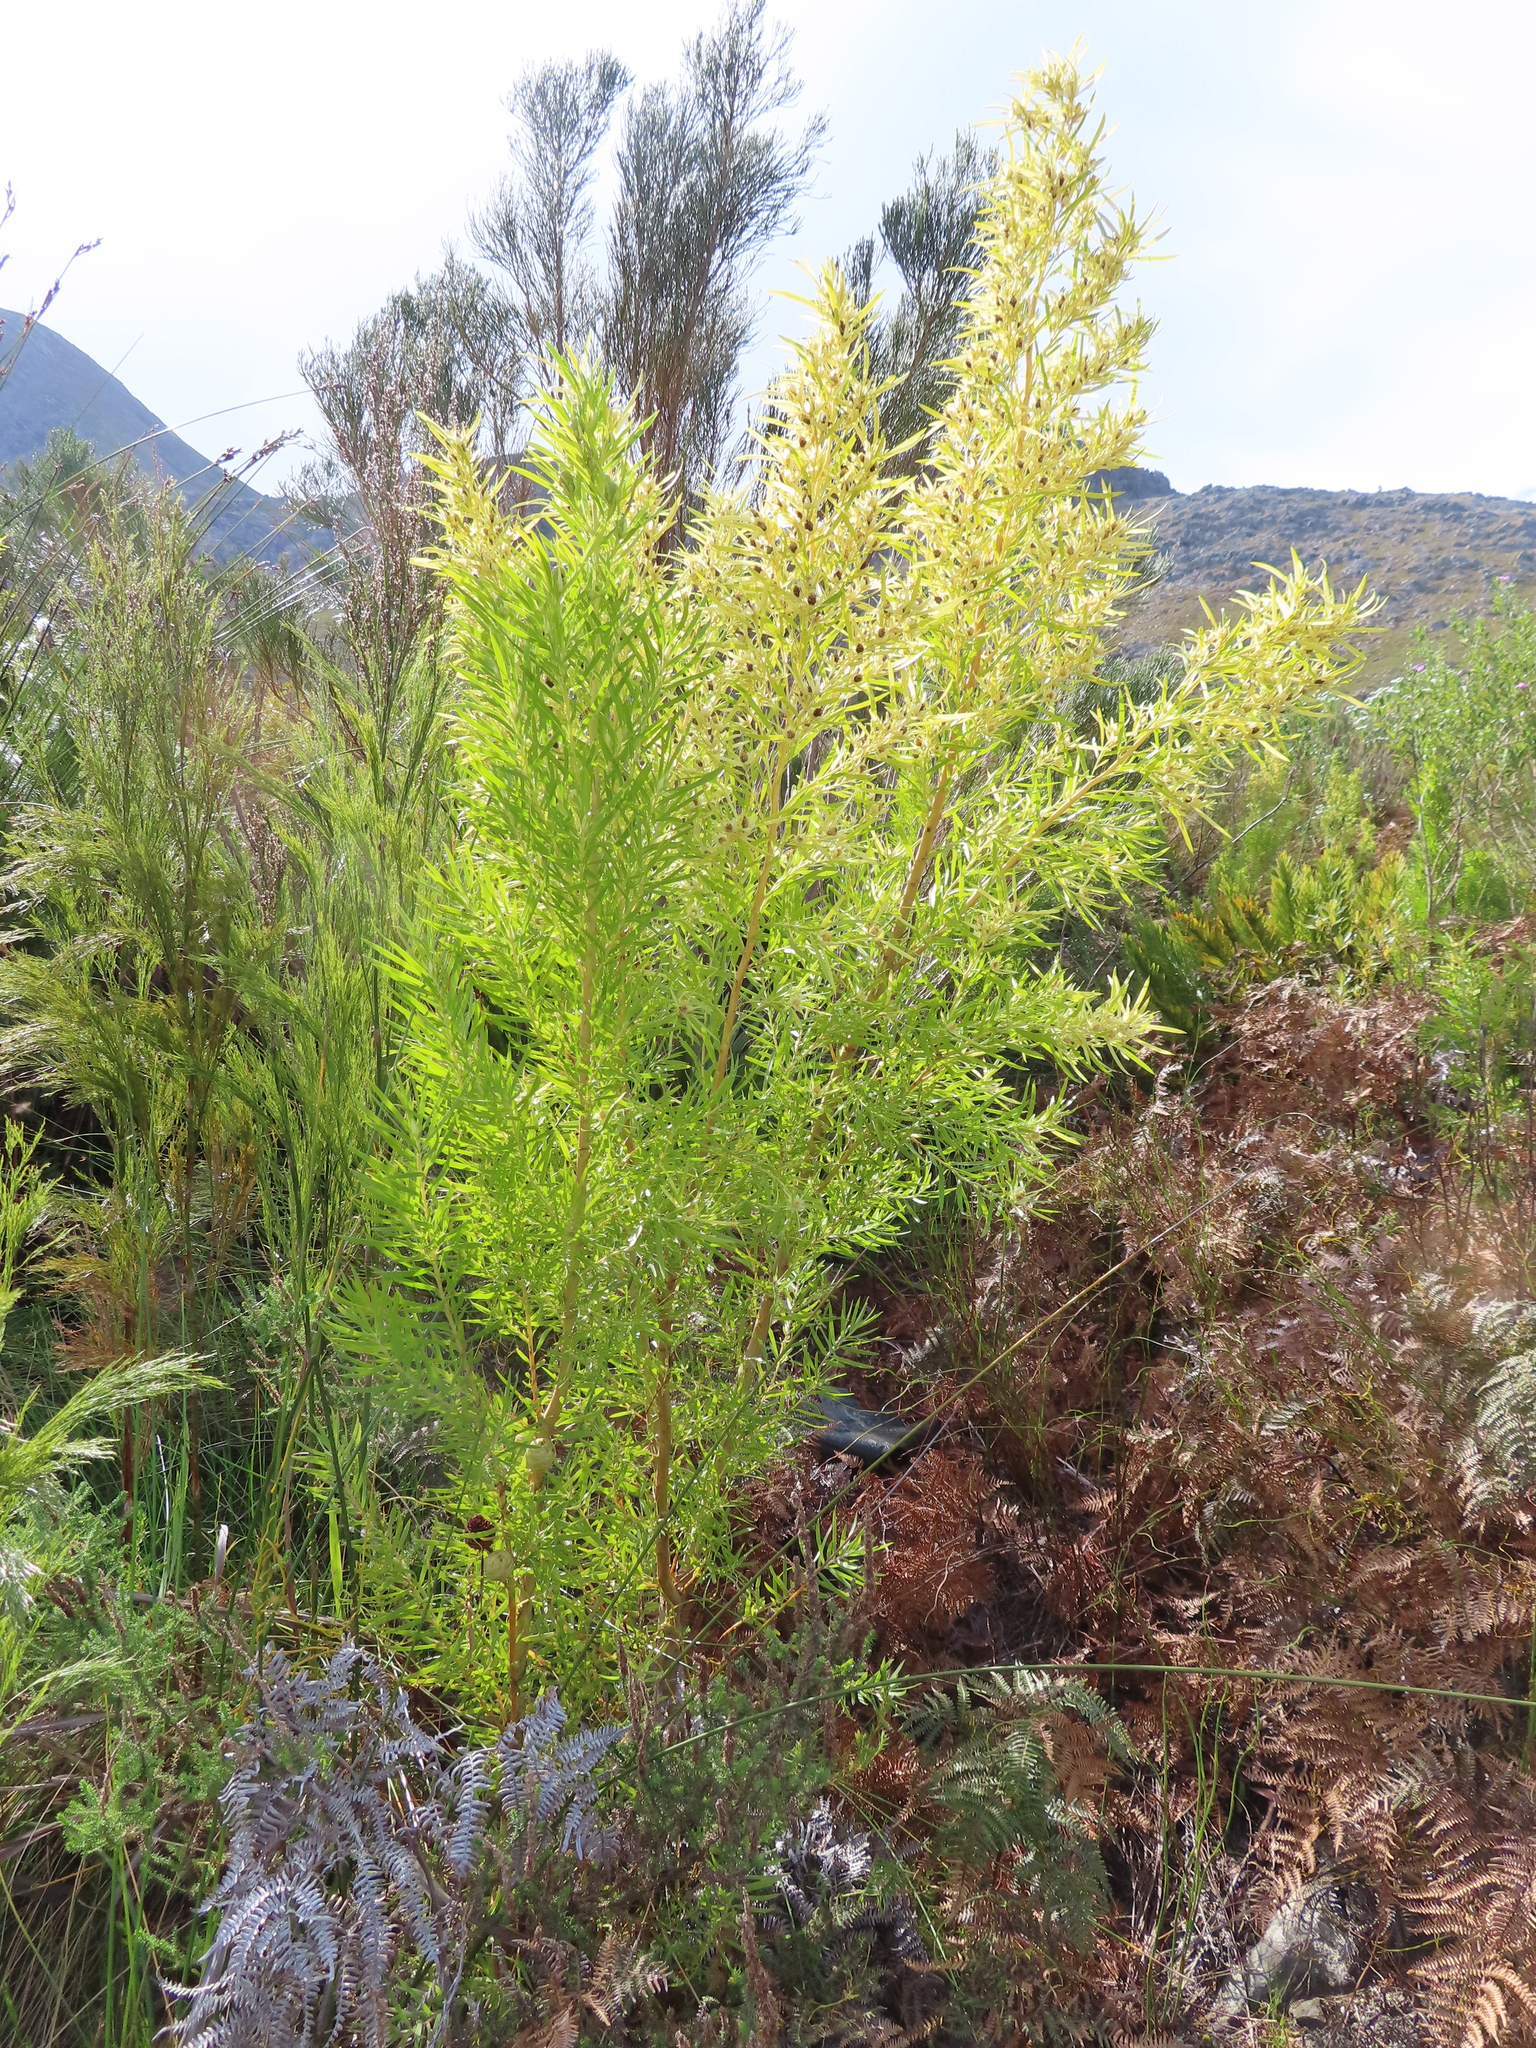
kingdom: Plantae
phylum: Tracheophyta
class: Magnoliopsida
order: Proteales
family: Proteaceae
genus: Leucadendron
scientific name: Leucadendron salicifolium
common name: Common stream conebush
